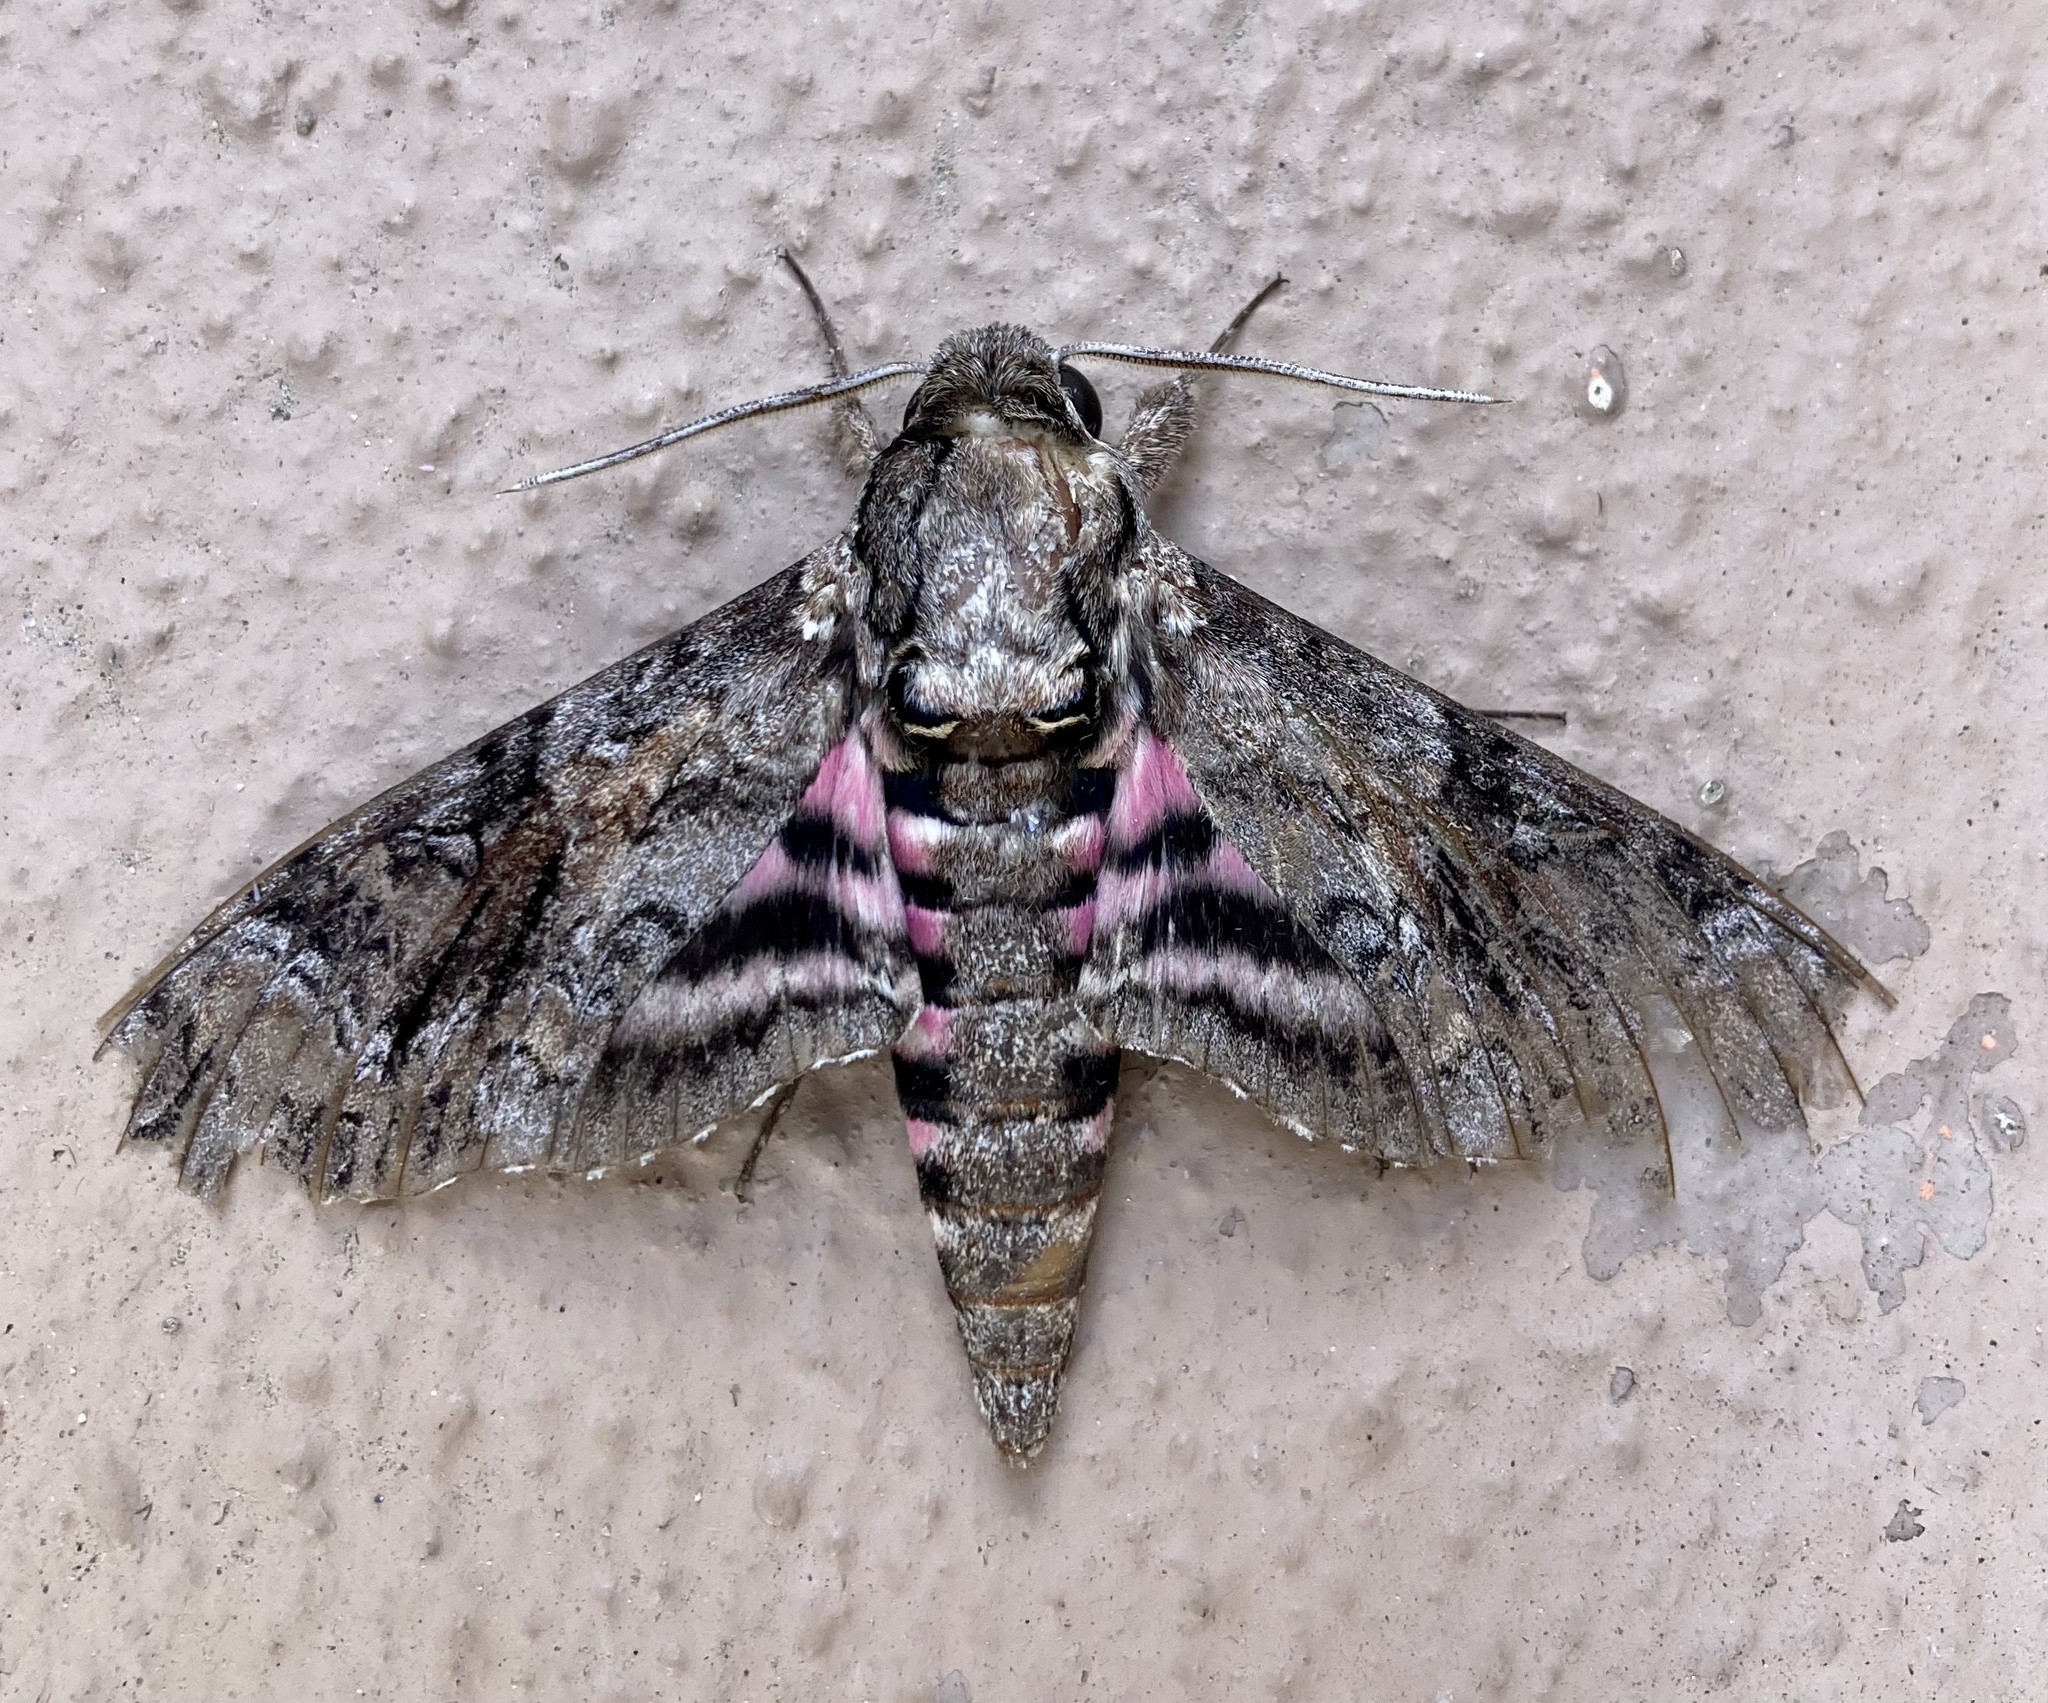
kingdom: Animalia
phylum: Arthropoda
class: Insecta
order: Lepidoptera
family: Sphingidae
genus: Agrius
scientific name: Agrius cingulata
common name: Pink-spotted hawkmoth
